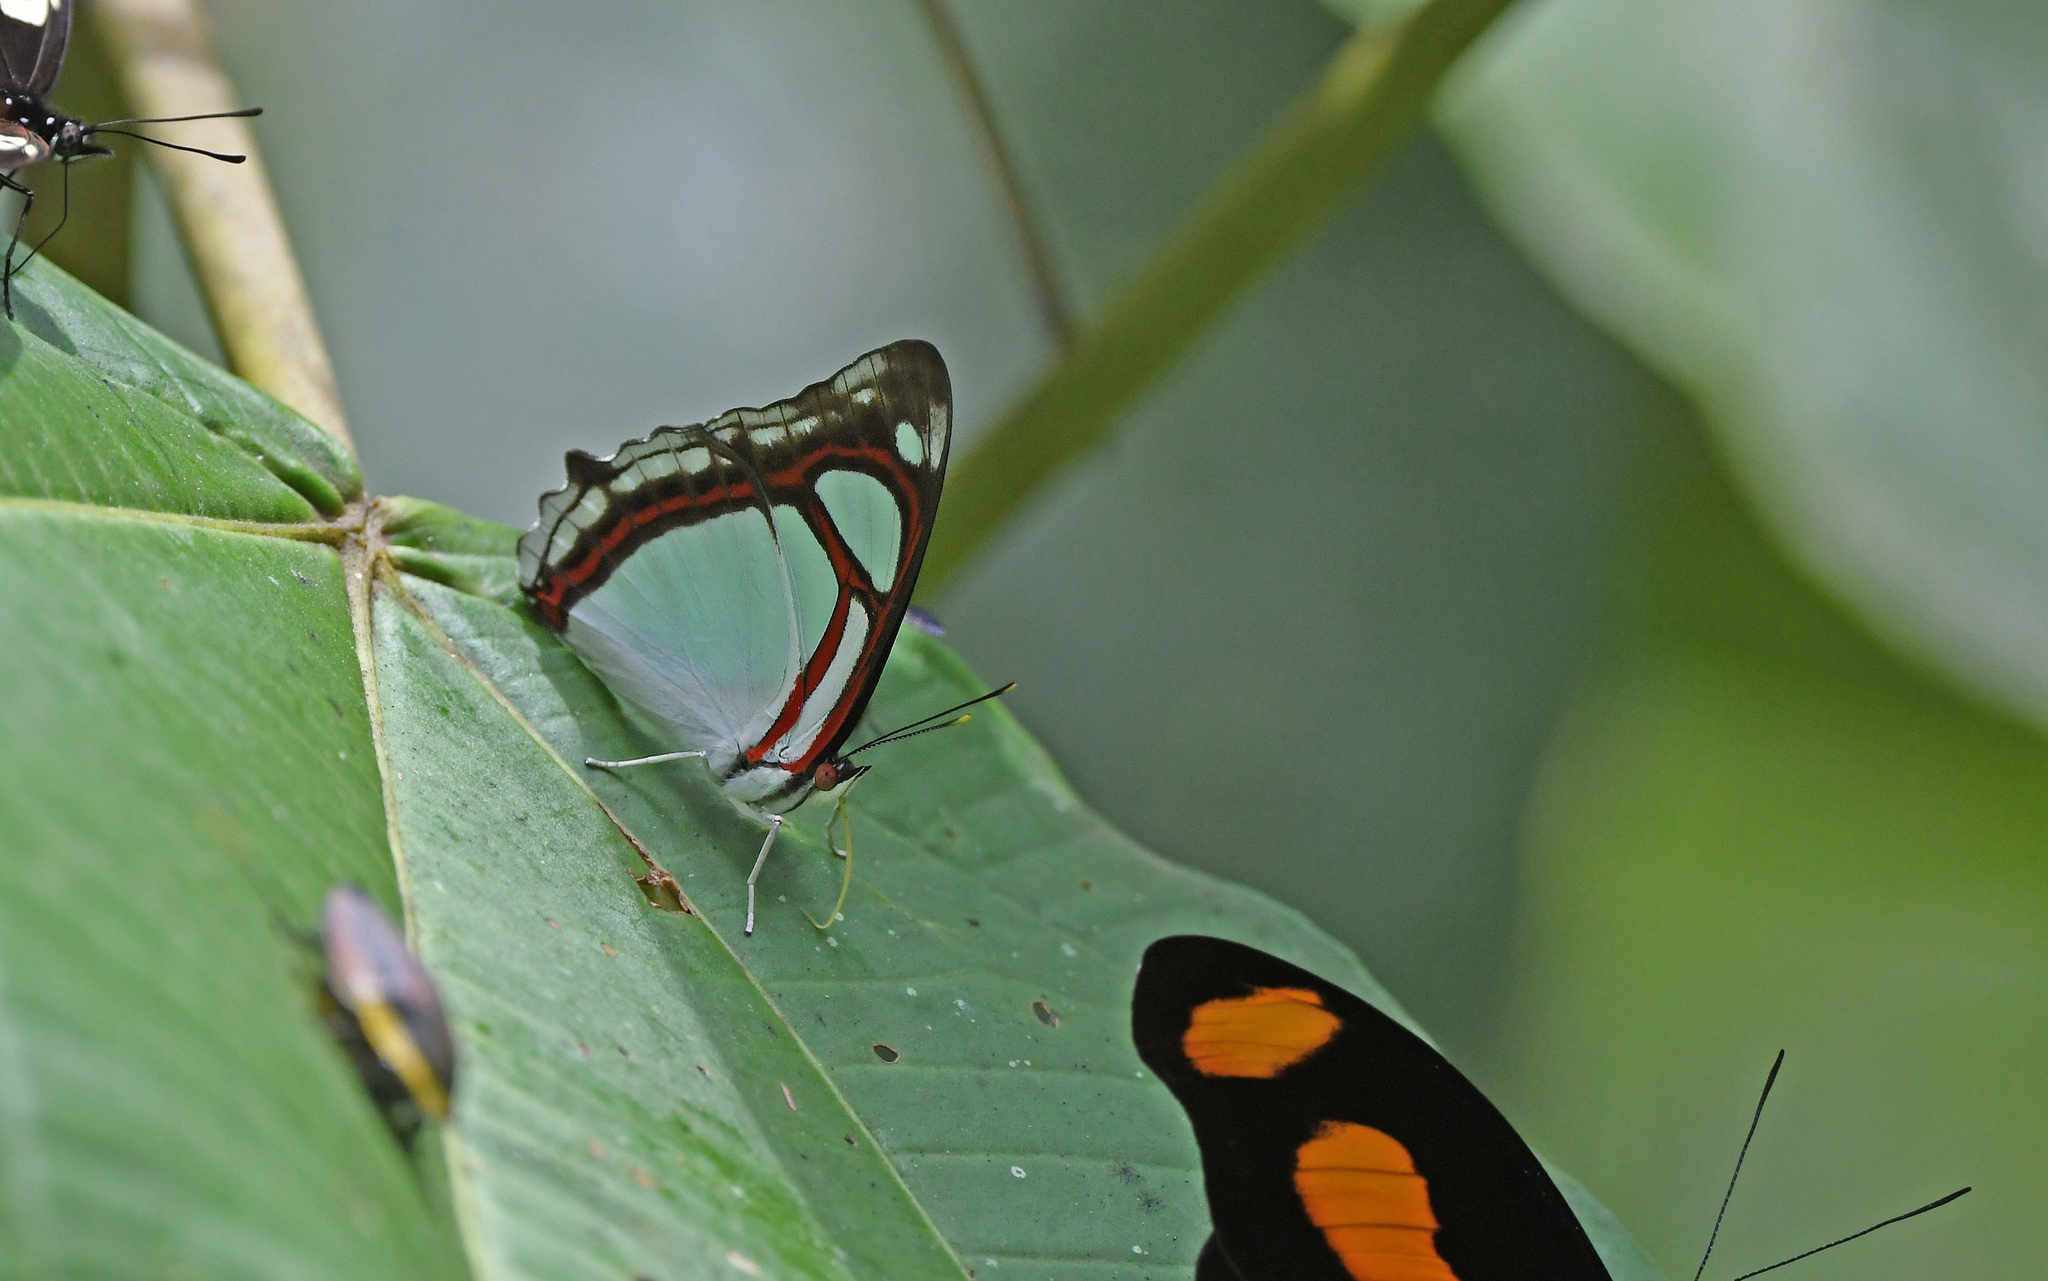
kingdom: Animalia
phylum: Arthropoda
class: Insecta
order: Lepidoptera
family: Nymphalidae
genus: Pyrrhogyra
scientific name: Pyrrhogyra edocla
